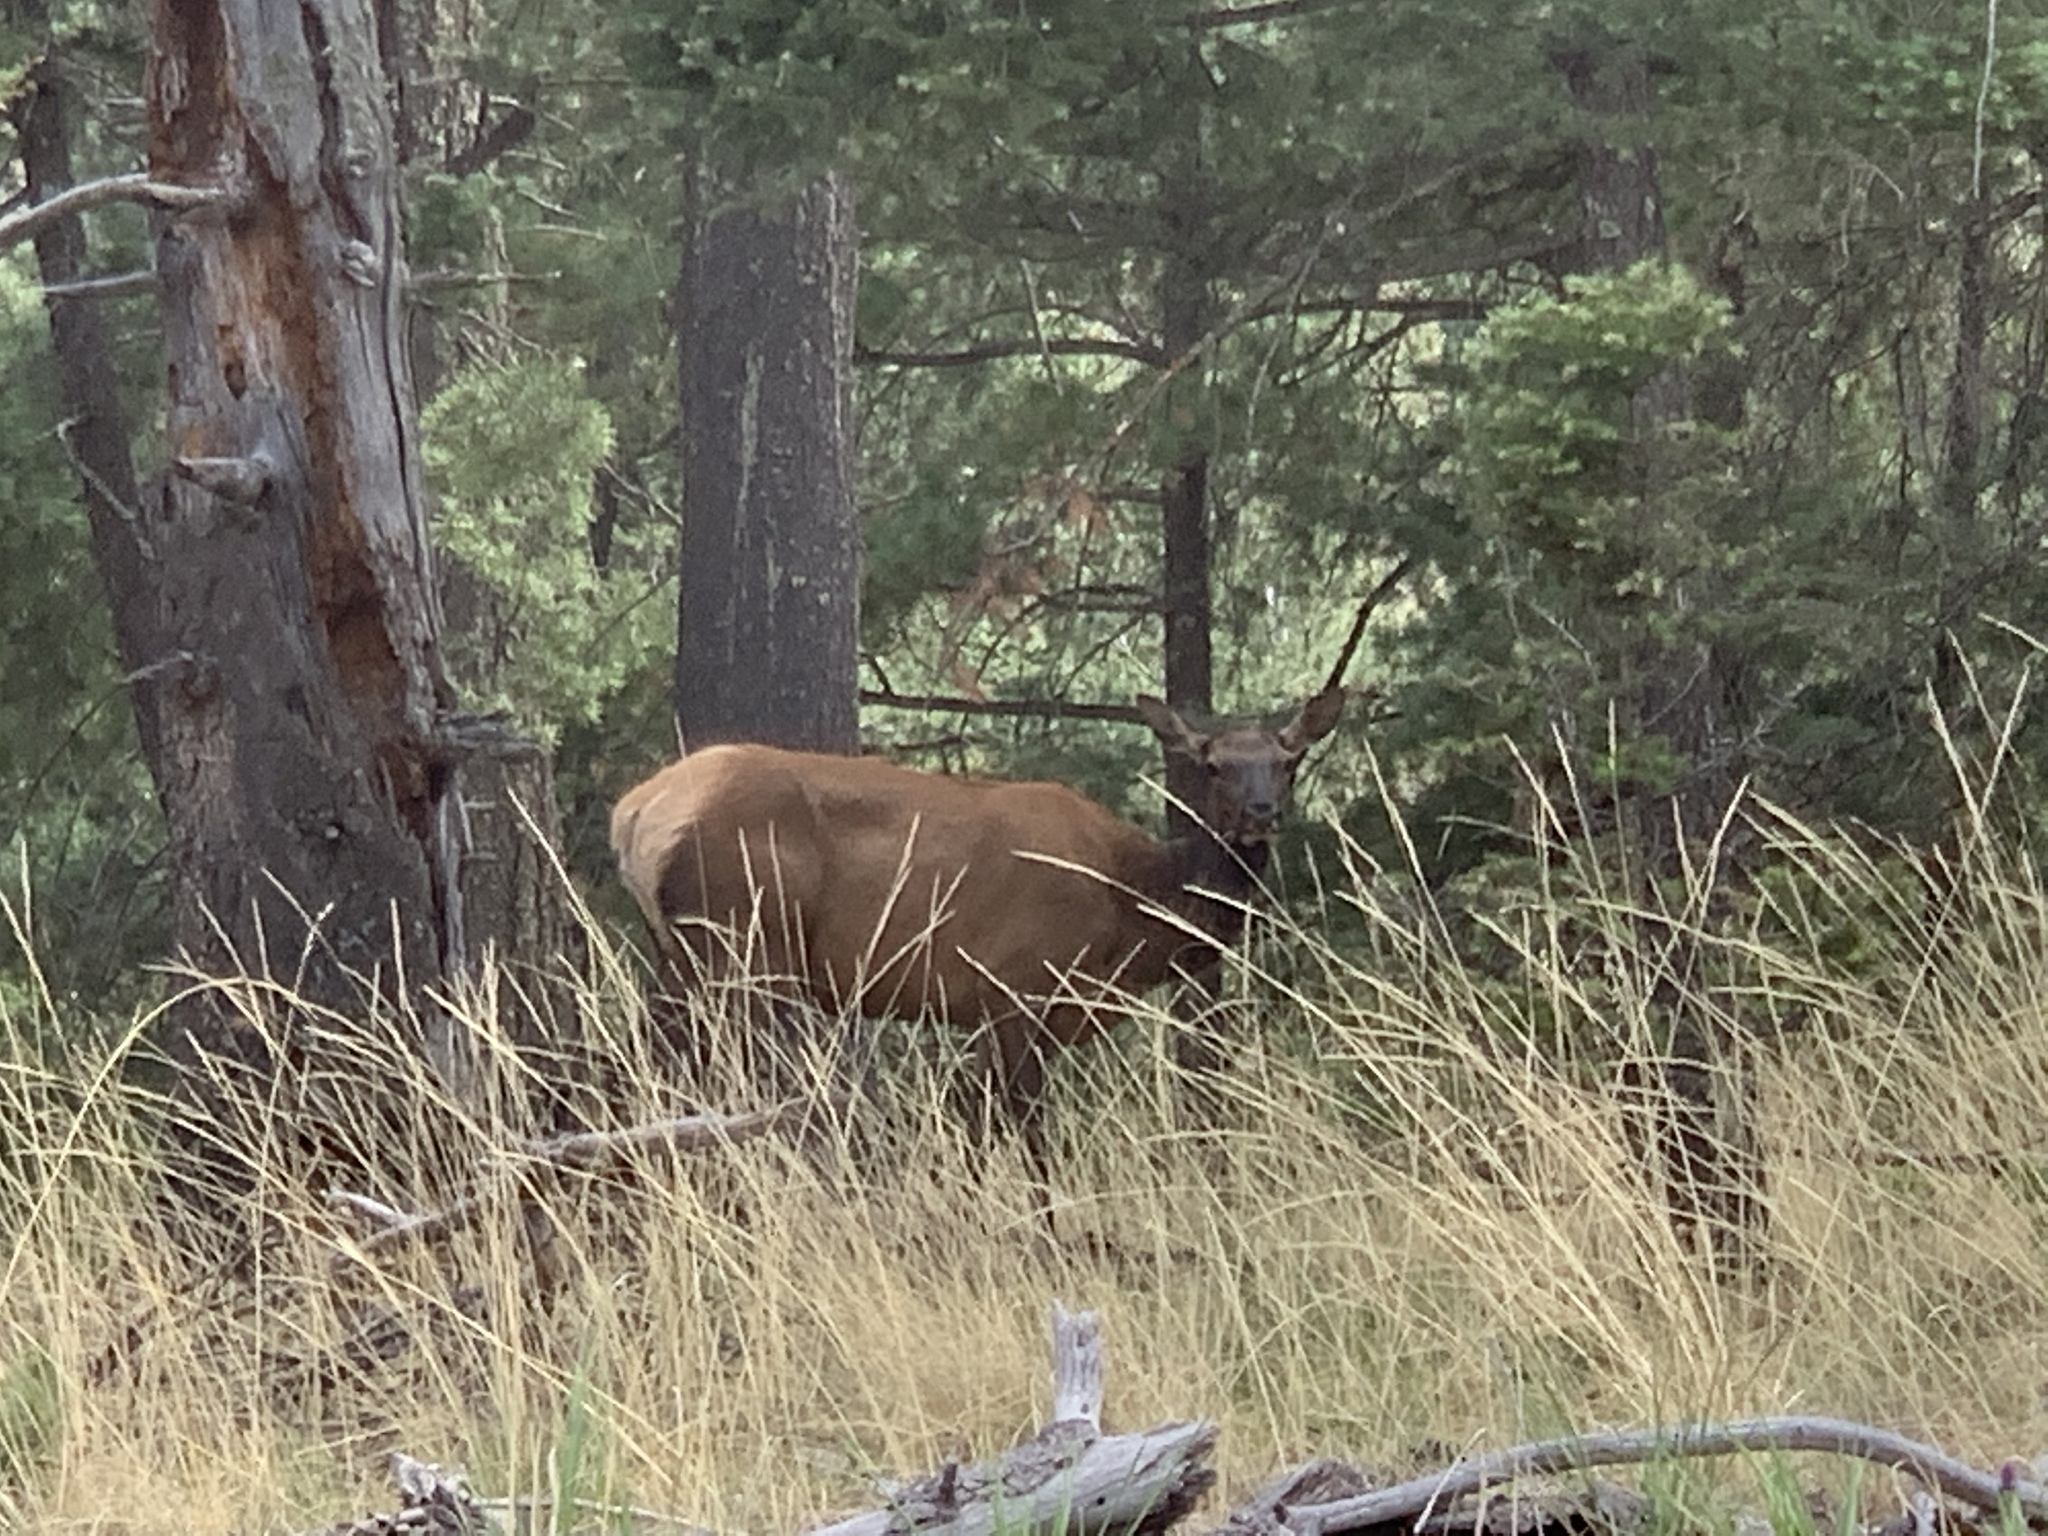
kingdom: Animalia
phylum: Chordata
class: Mammalia
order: Artiodactyla
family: Cervidae
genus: Cervus
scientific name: Cervus elaphus
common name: Red deer
